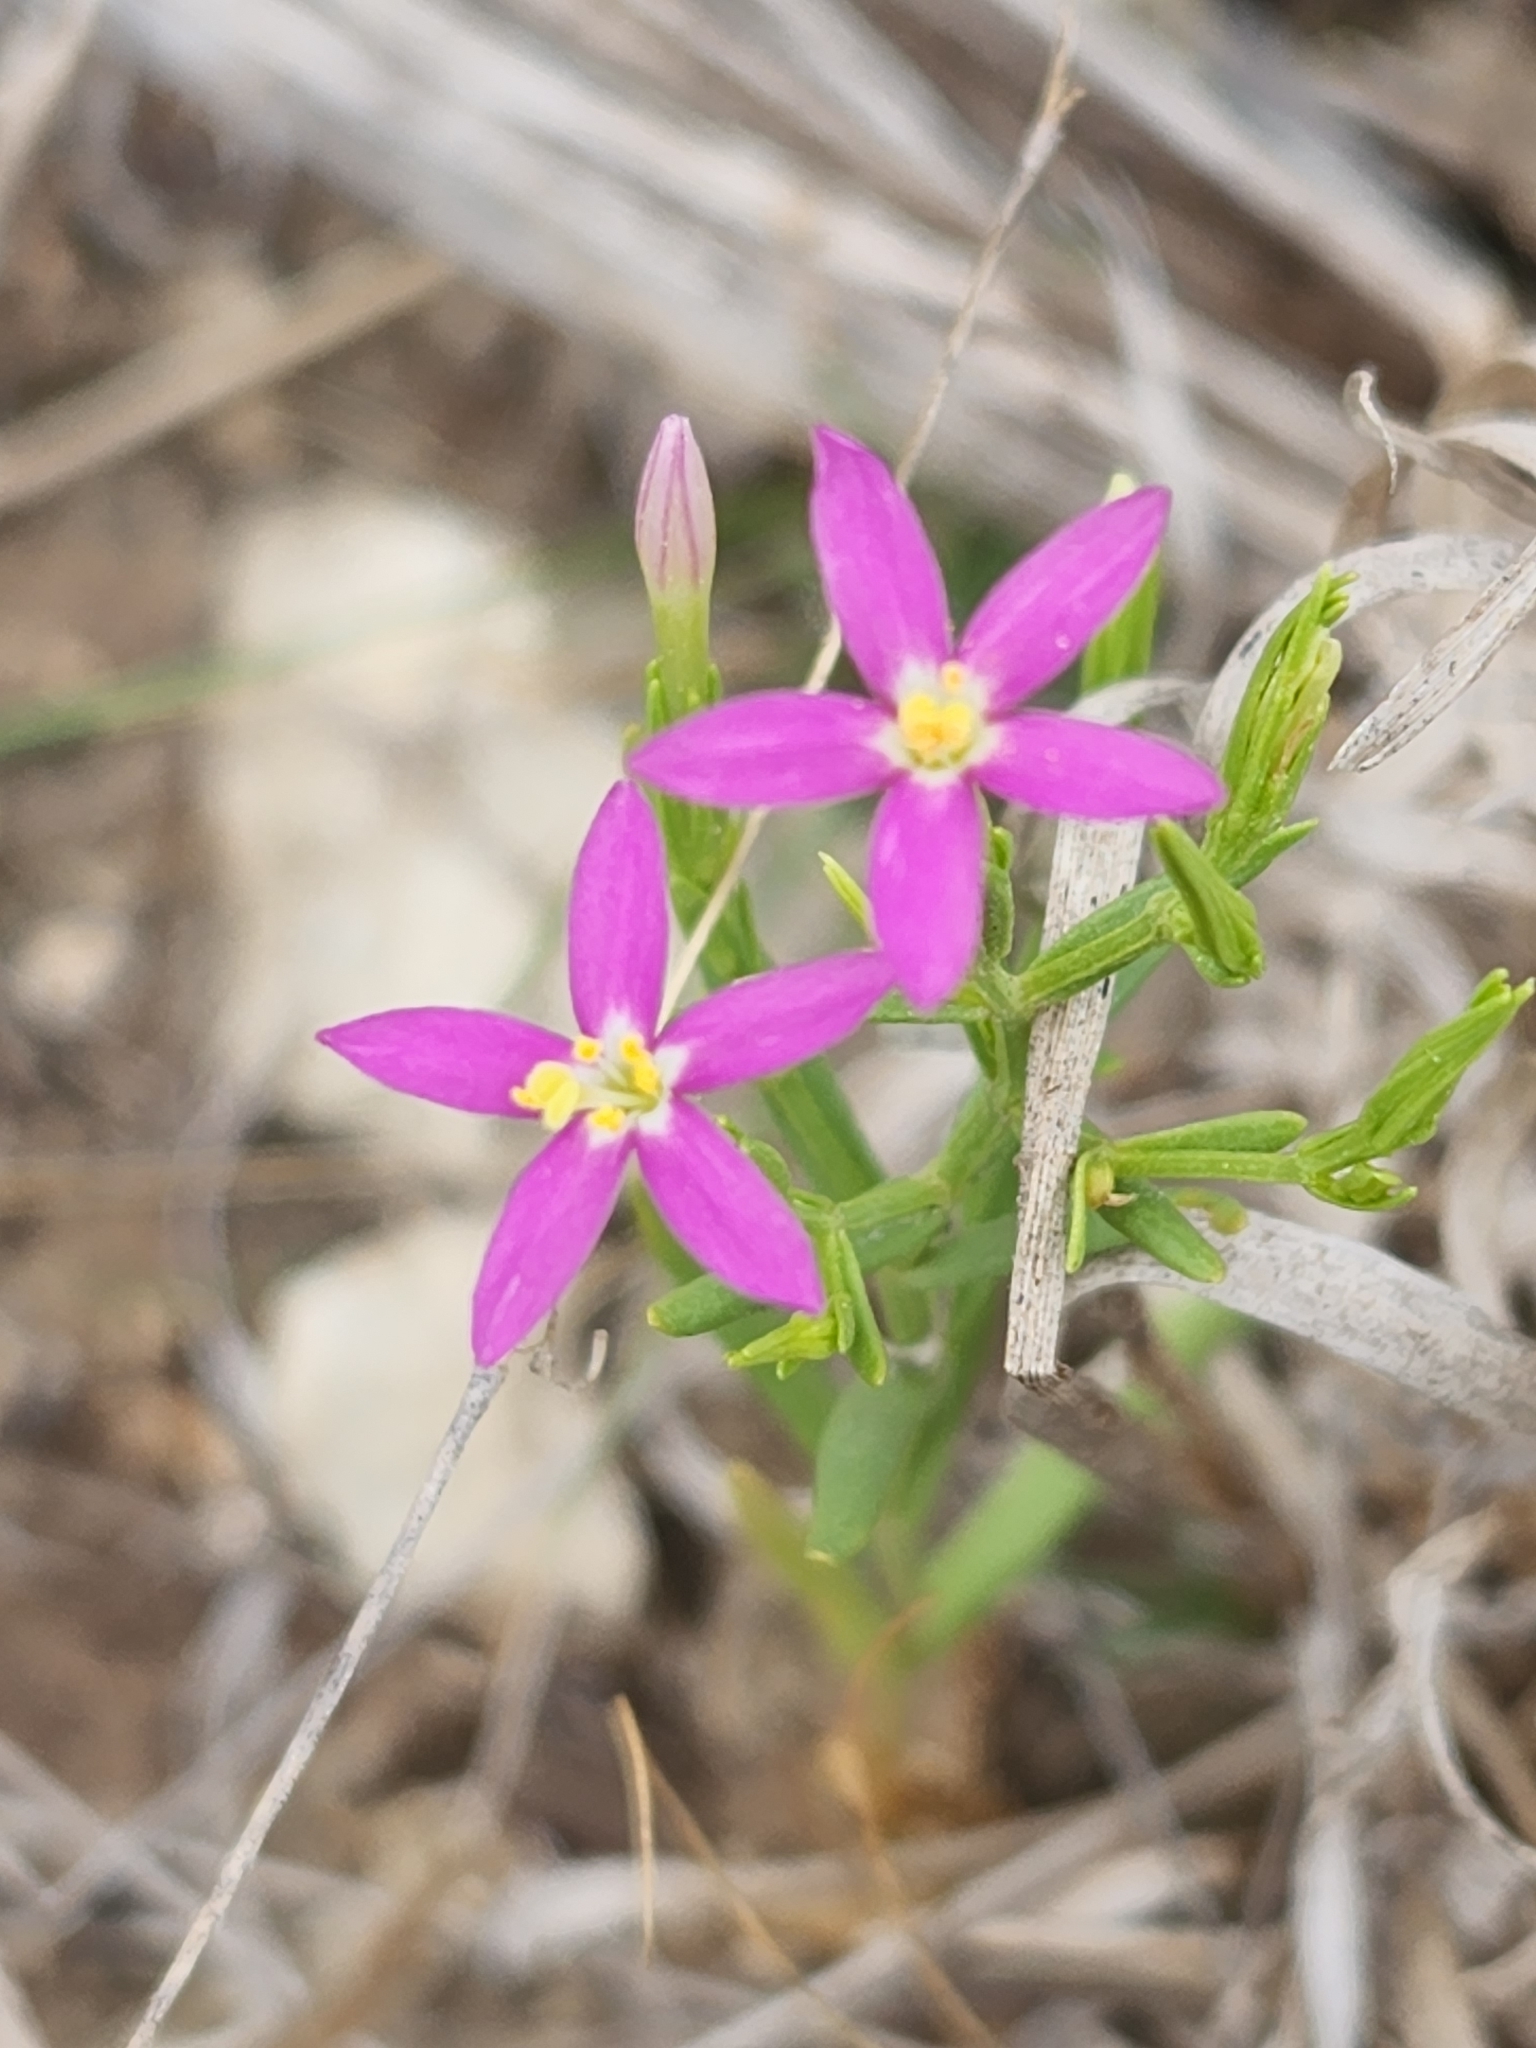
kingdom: Plantae
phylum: Tracheophyta
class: Magnoliopsida
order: Gentianales
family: Gentianaceae
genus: Zeltnera
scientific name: Zeltnera texensis
